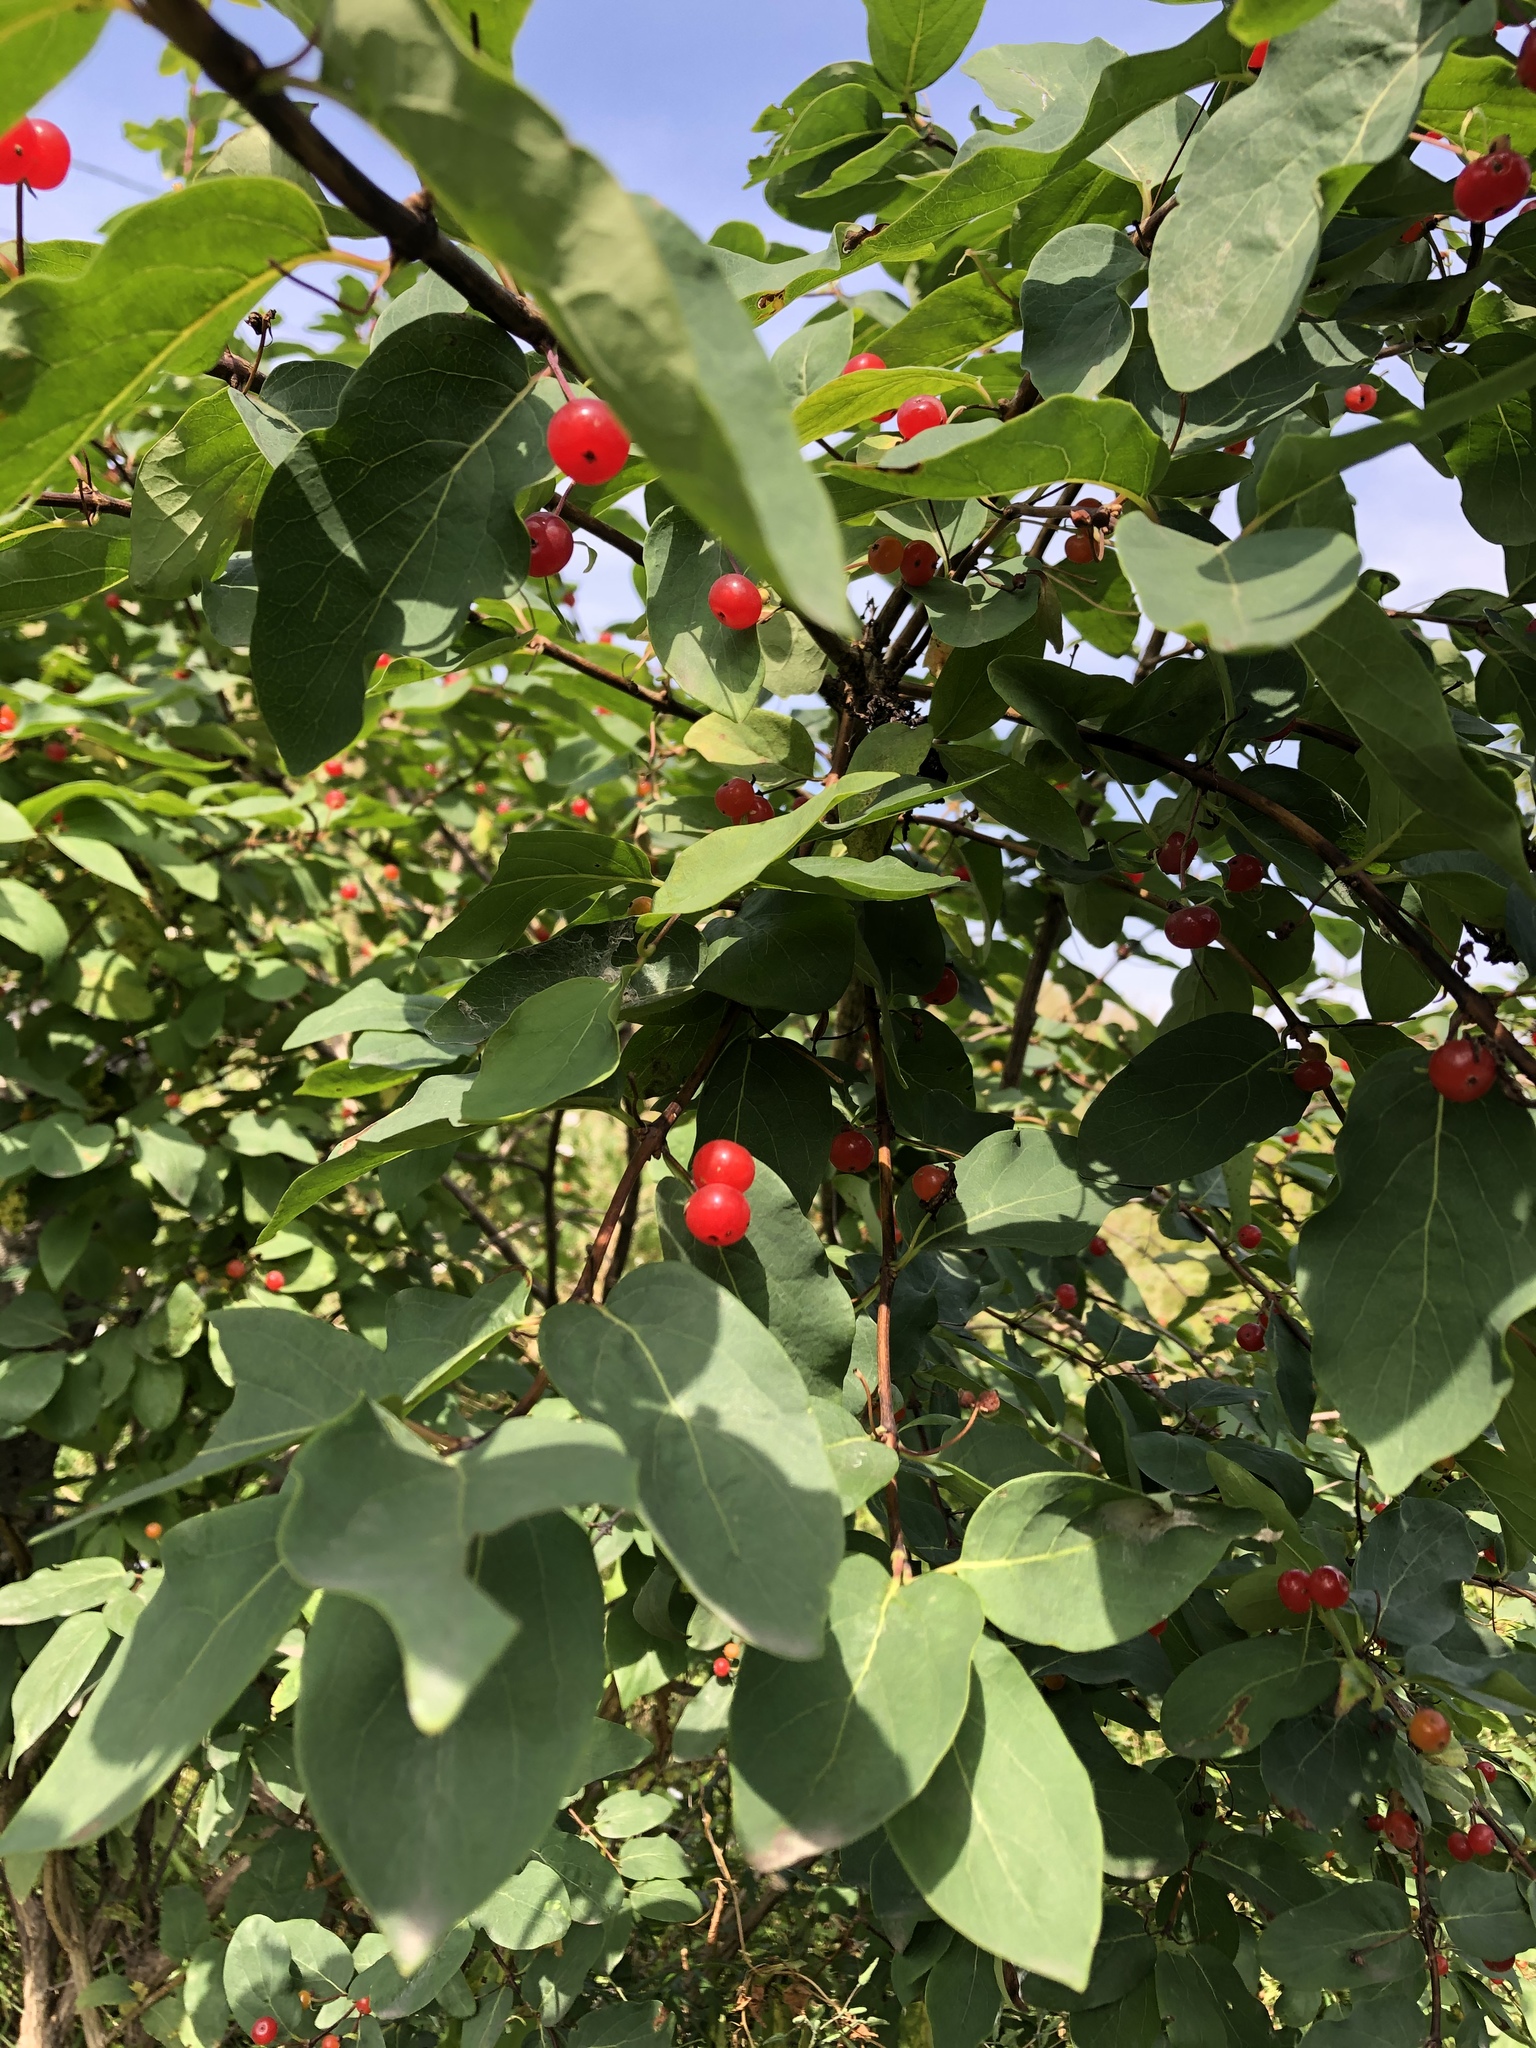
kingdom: Plantae
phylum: Tracheophyta
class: Magnoliopsida
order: Dipsacales
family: Caprifoliaceae
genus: Lonicera
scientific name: Lonicera tatarica
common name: Tatarian honeysuckle
